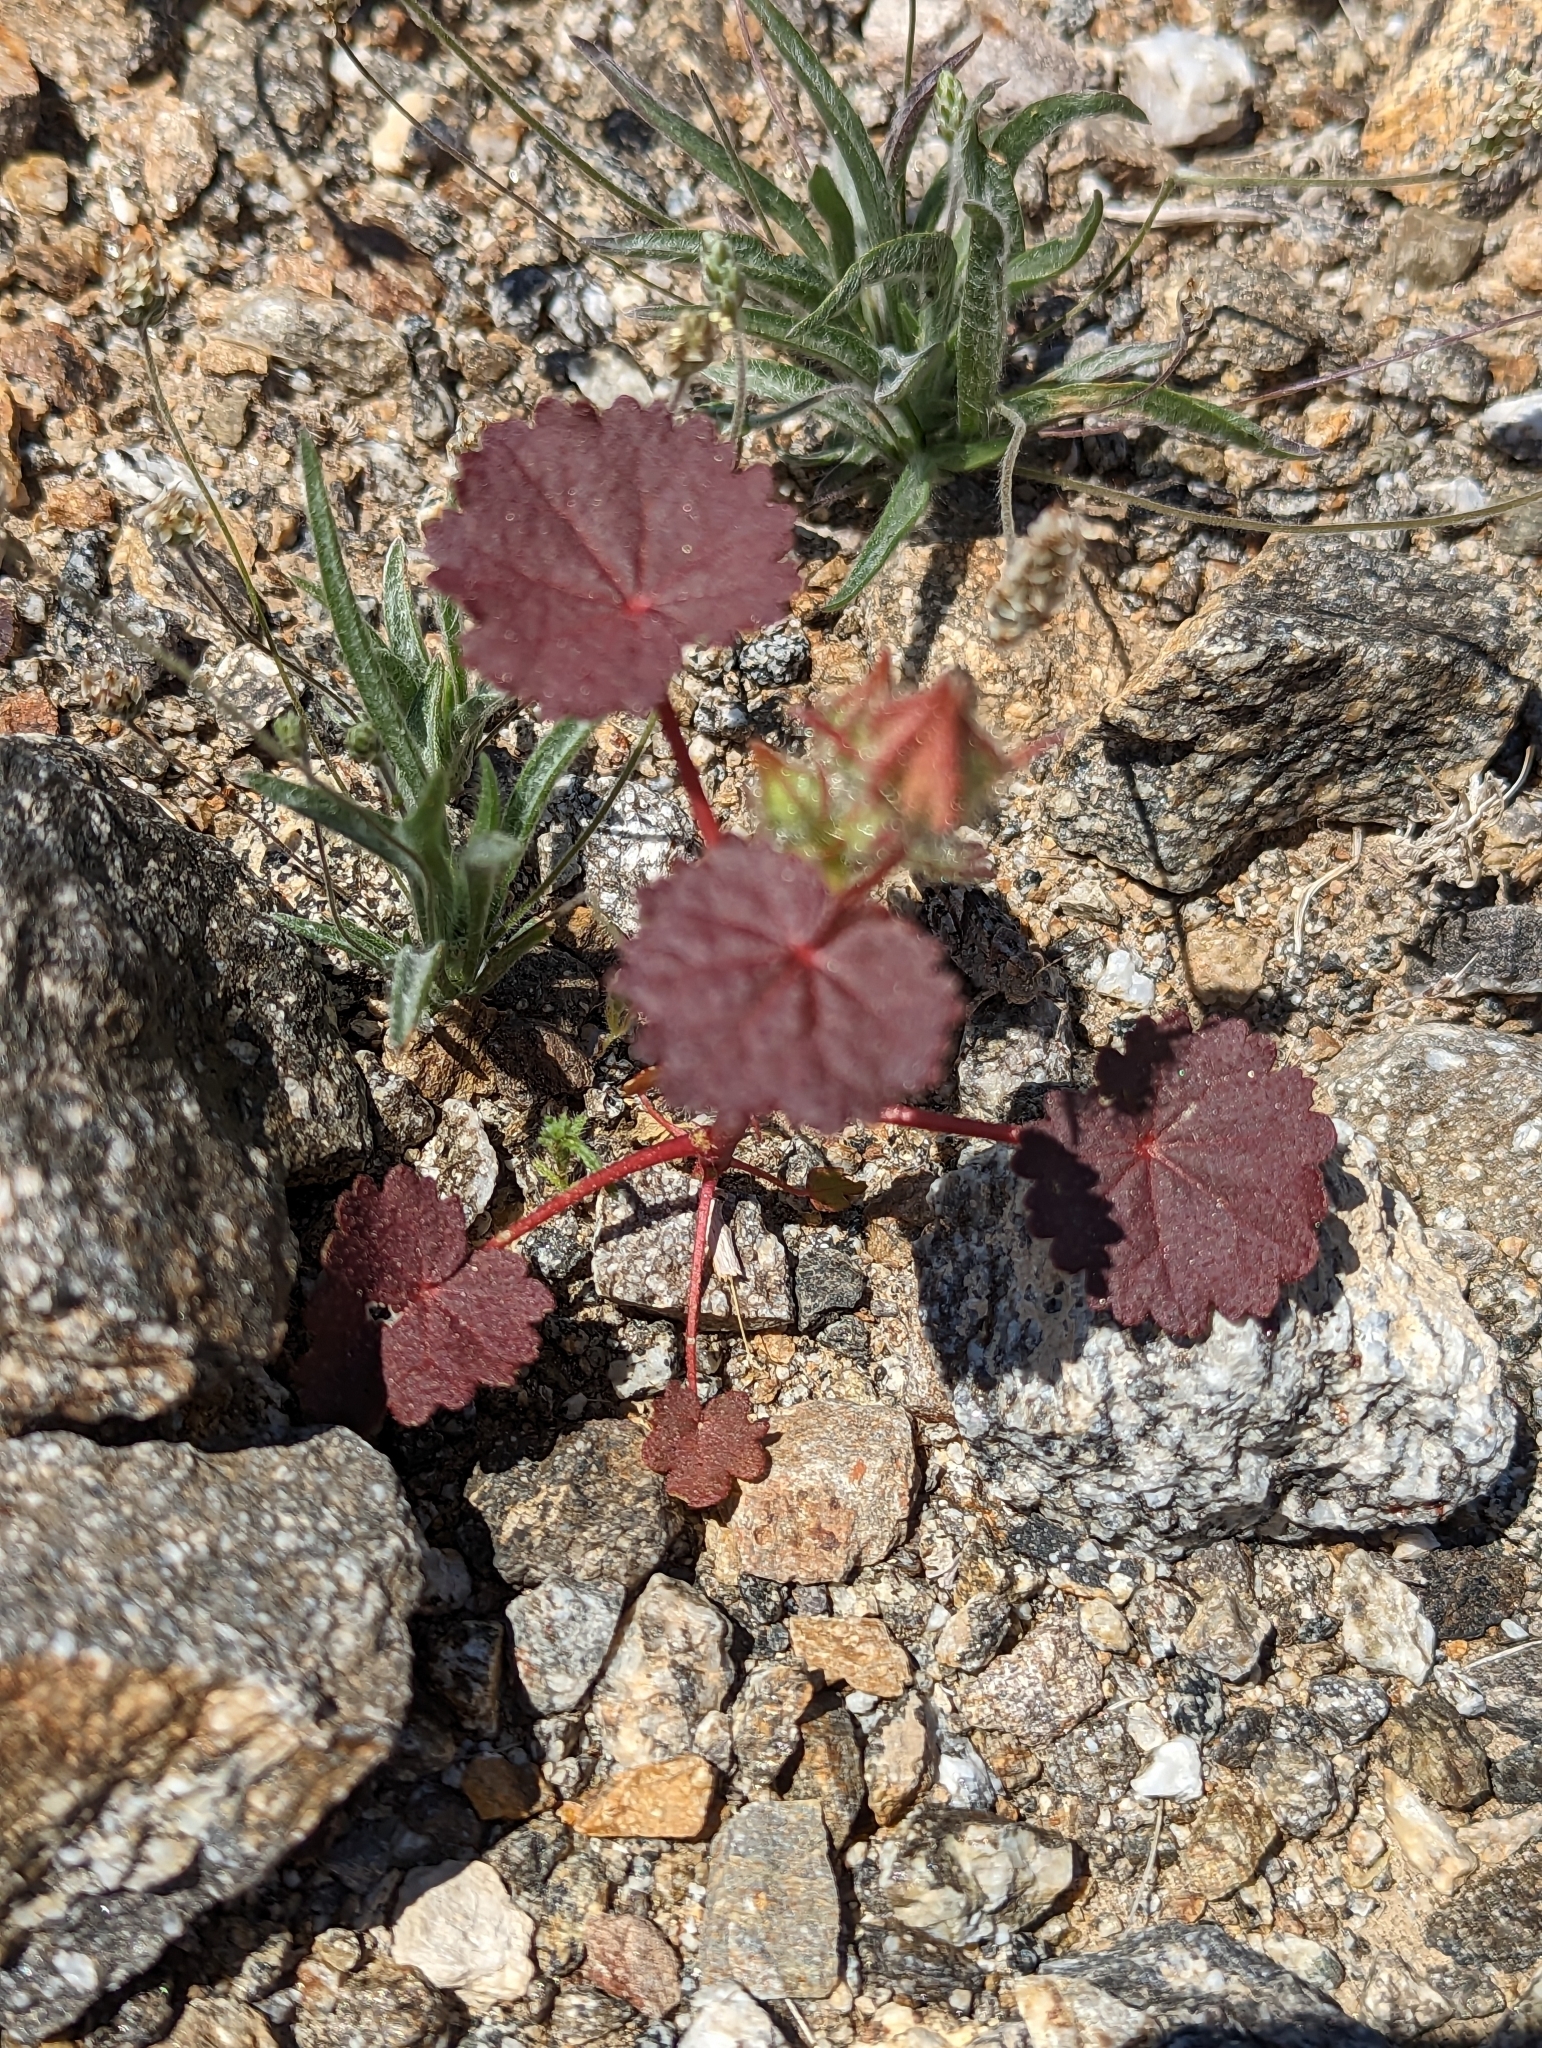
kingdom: Plantae
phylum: Tracheophyta
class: Magnoliopsida
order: Malvales
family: Malvaceae
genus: Eremalche
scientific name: Eremalche rotundifolia
